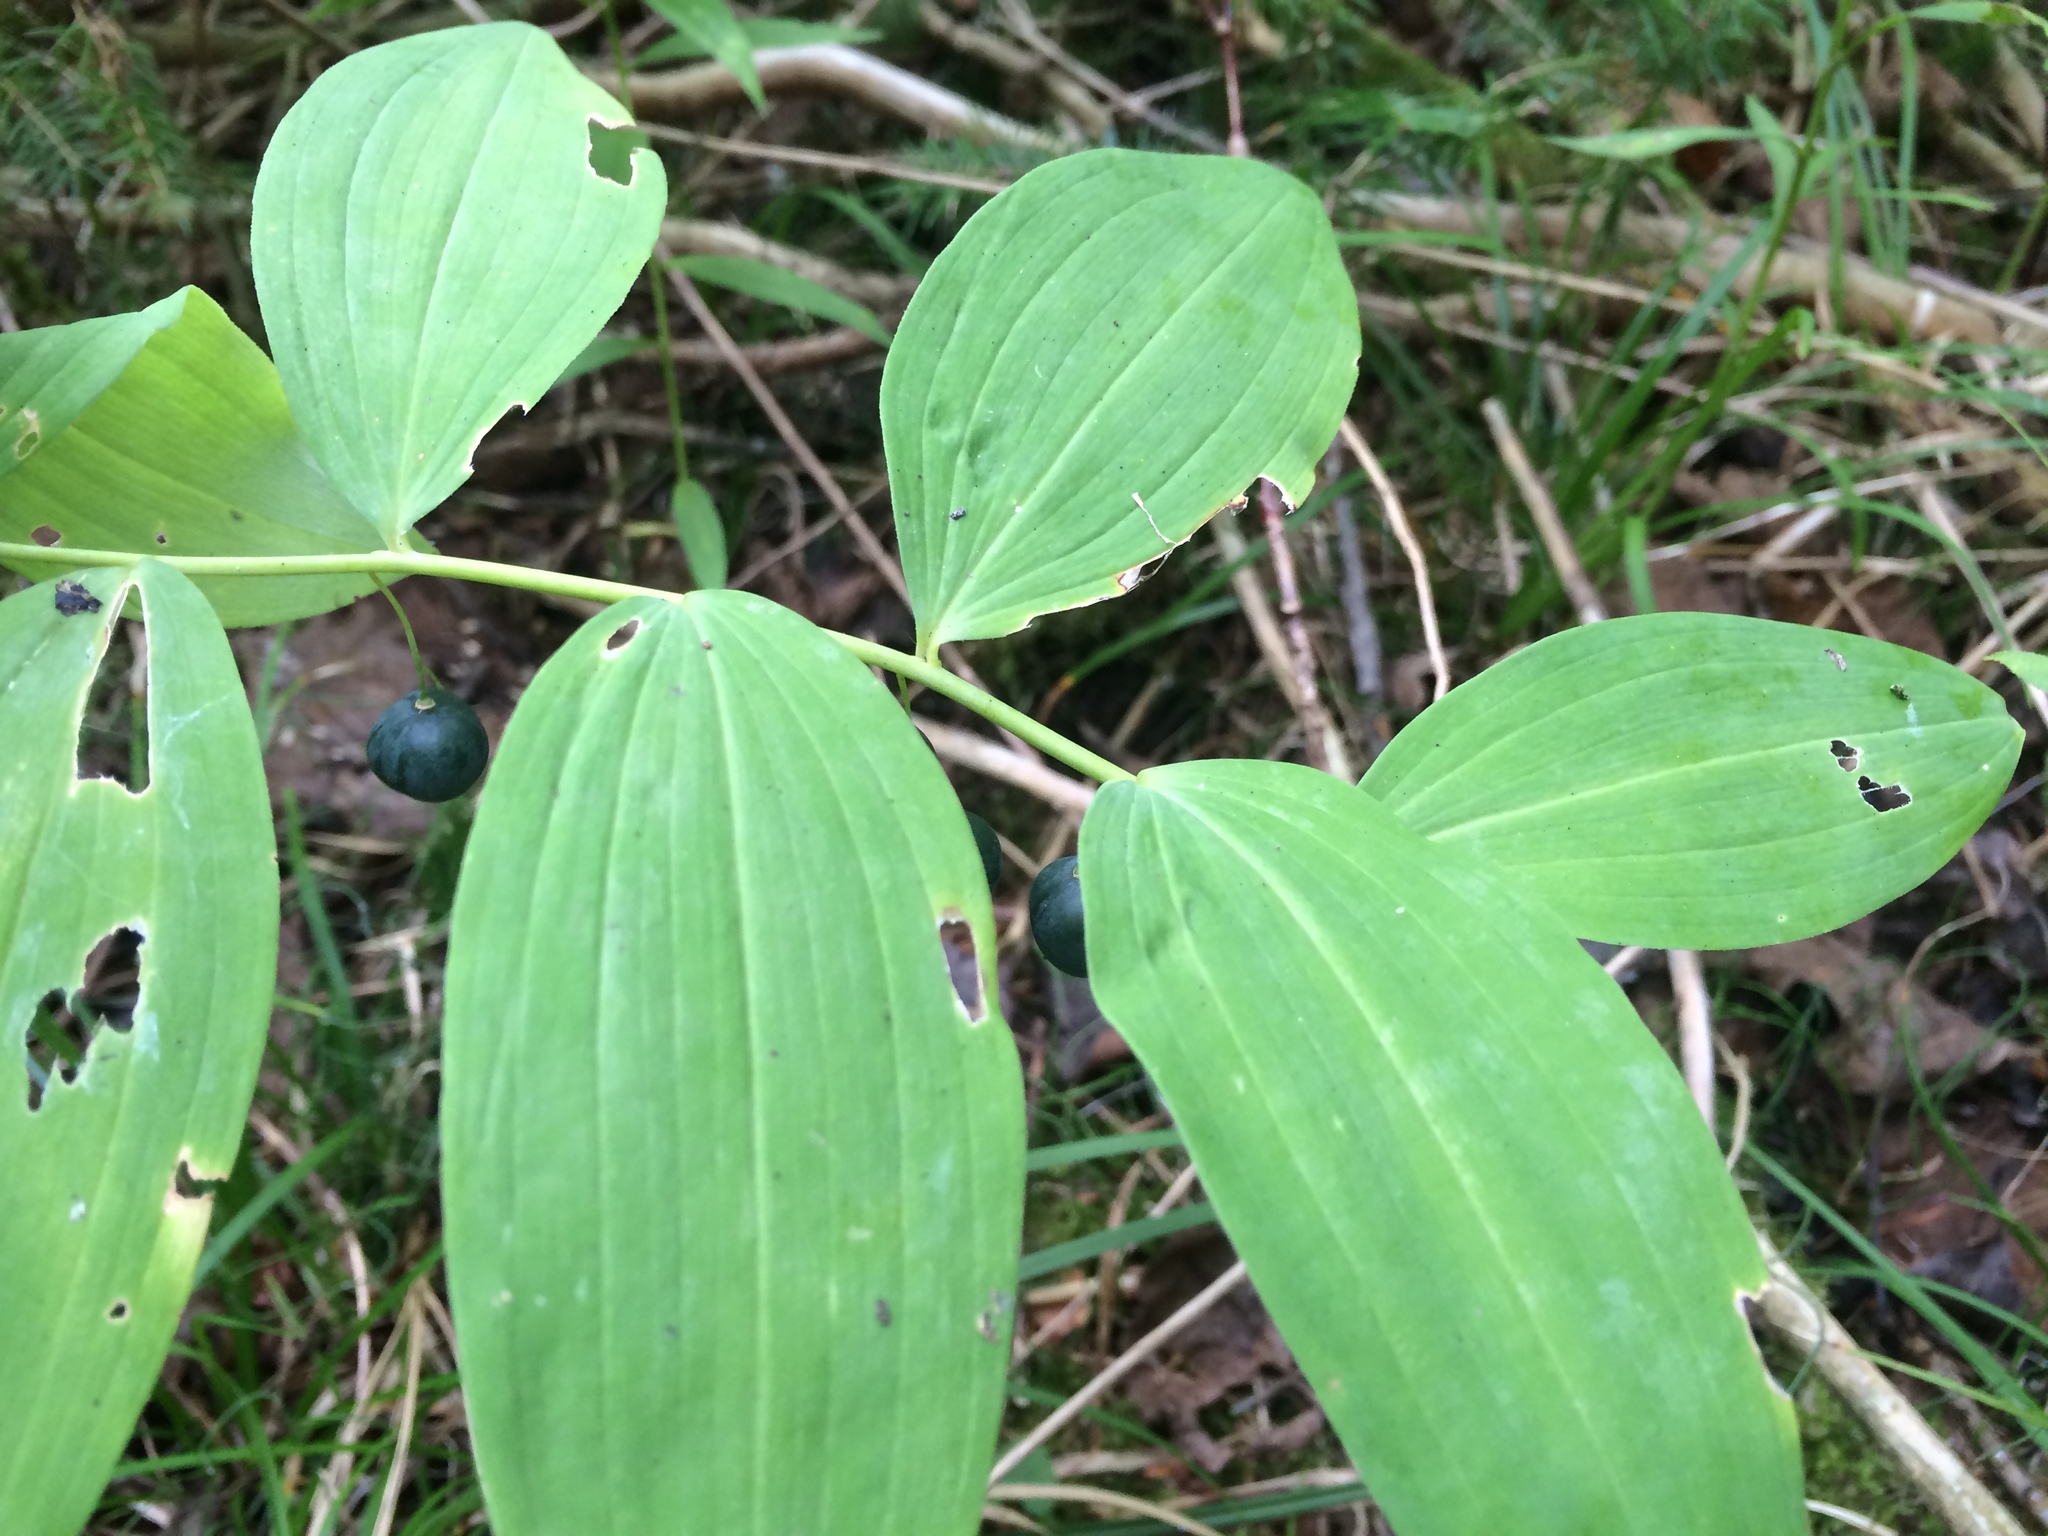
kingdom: Plantae
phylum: Tracheophyta
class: Liliopsida
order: Asparagales
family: Asparagaceae
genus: Polygonatum
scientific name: Polygonatum pubescens
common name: Downy solomon's seal
